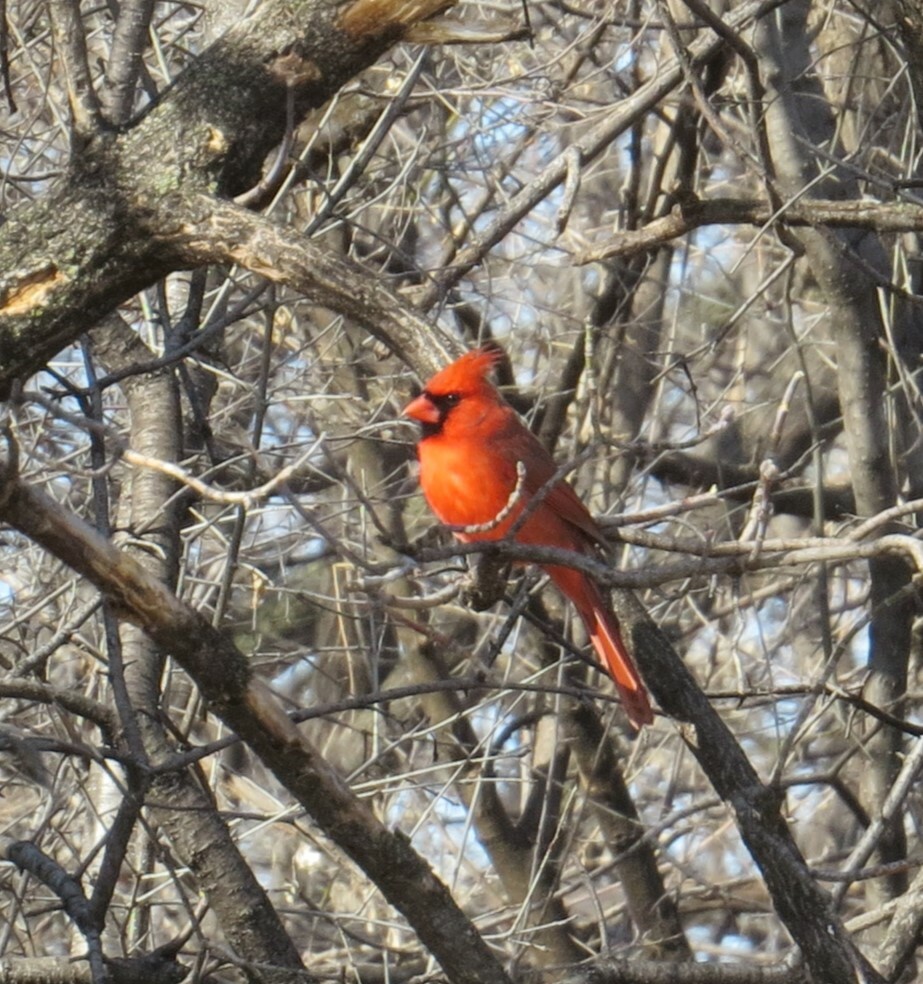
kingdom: Animalia
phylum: Chordata
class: Aves
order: Passeriformes
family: Cardinalidae
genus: Cardinalis
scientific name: Cardinalis cardinalis
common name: Northern cardinal
